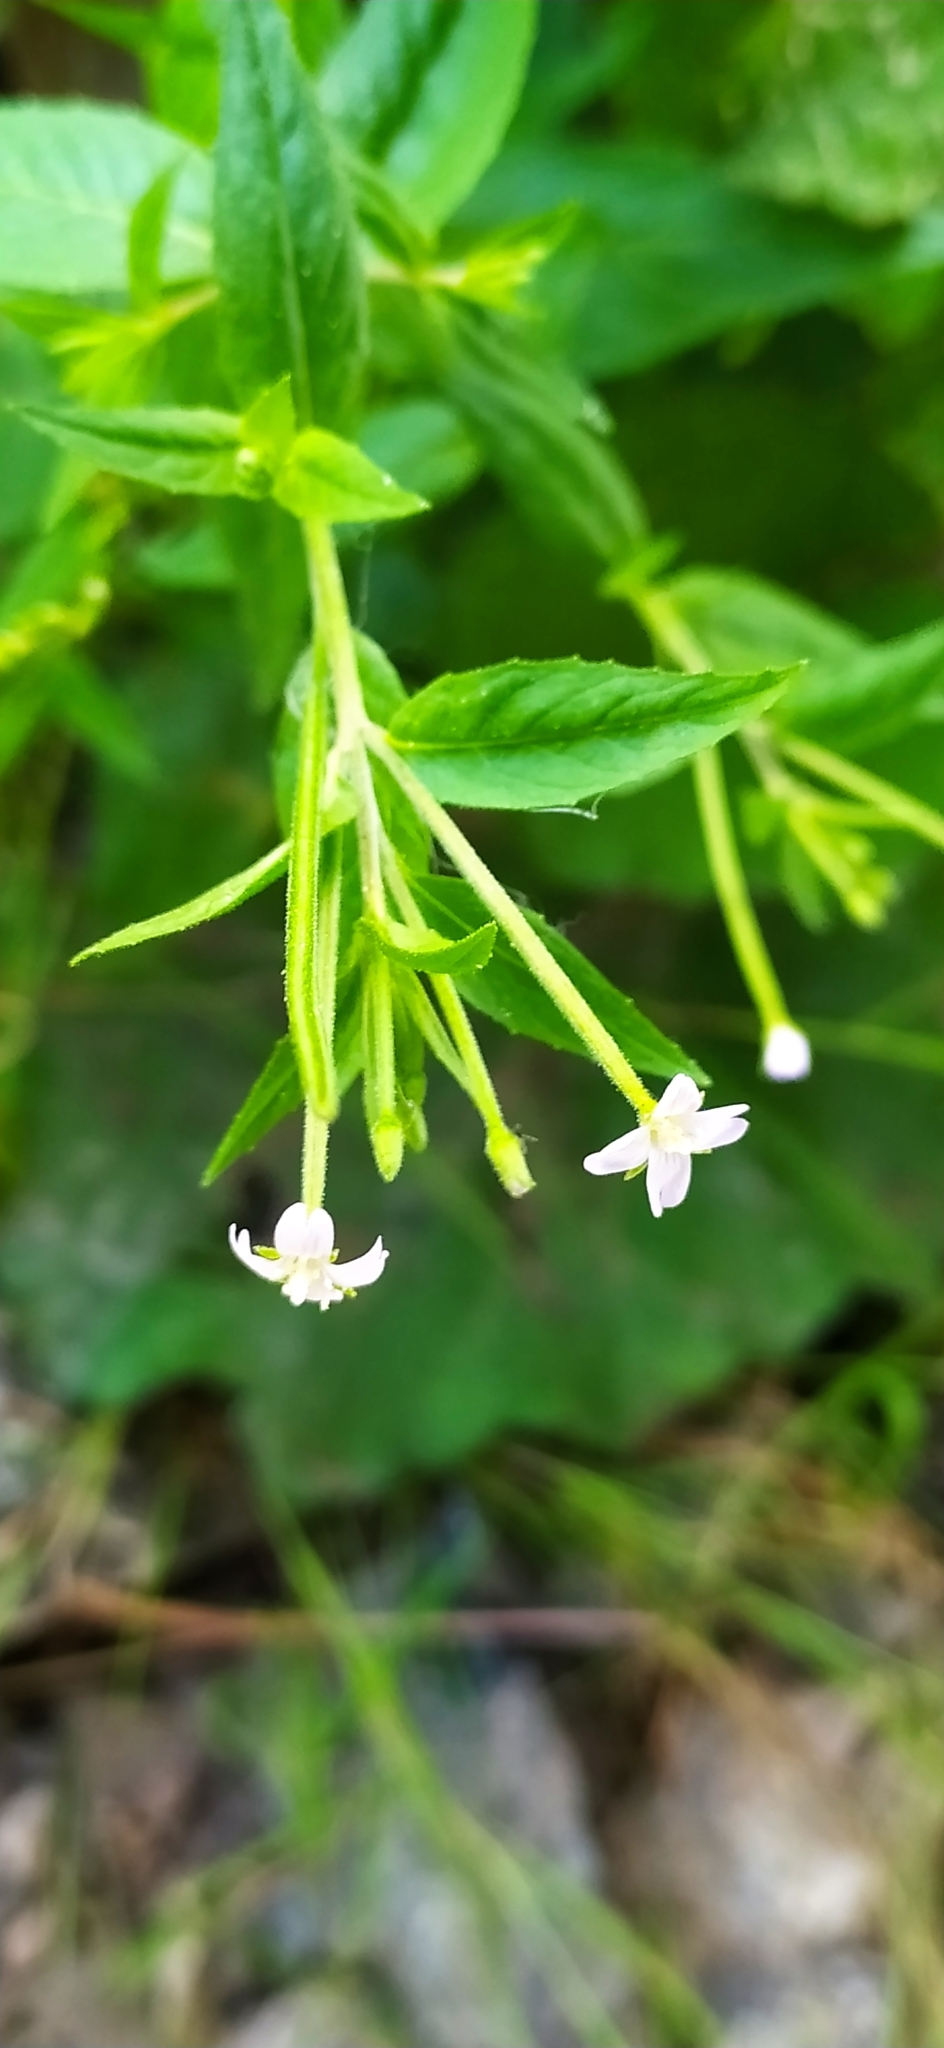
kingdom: Plantae
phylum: Tracheophyta
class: Magnoliopsida
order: Myrtales
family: Onagraceae
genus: Epilobium
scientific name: Epilobium pseudorubescens
